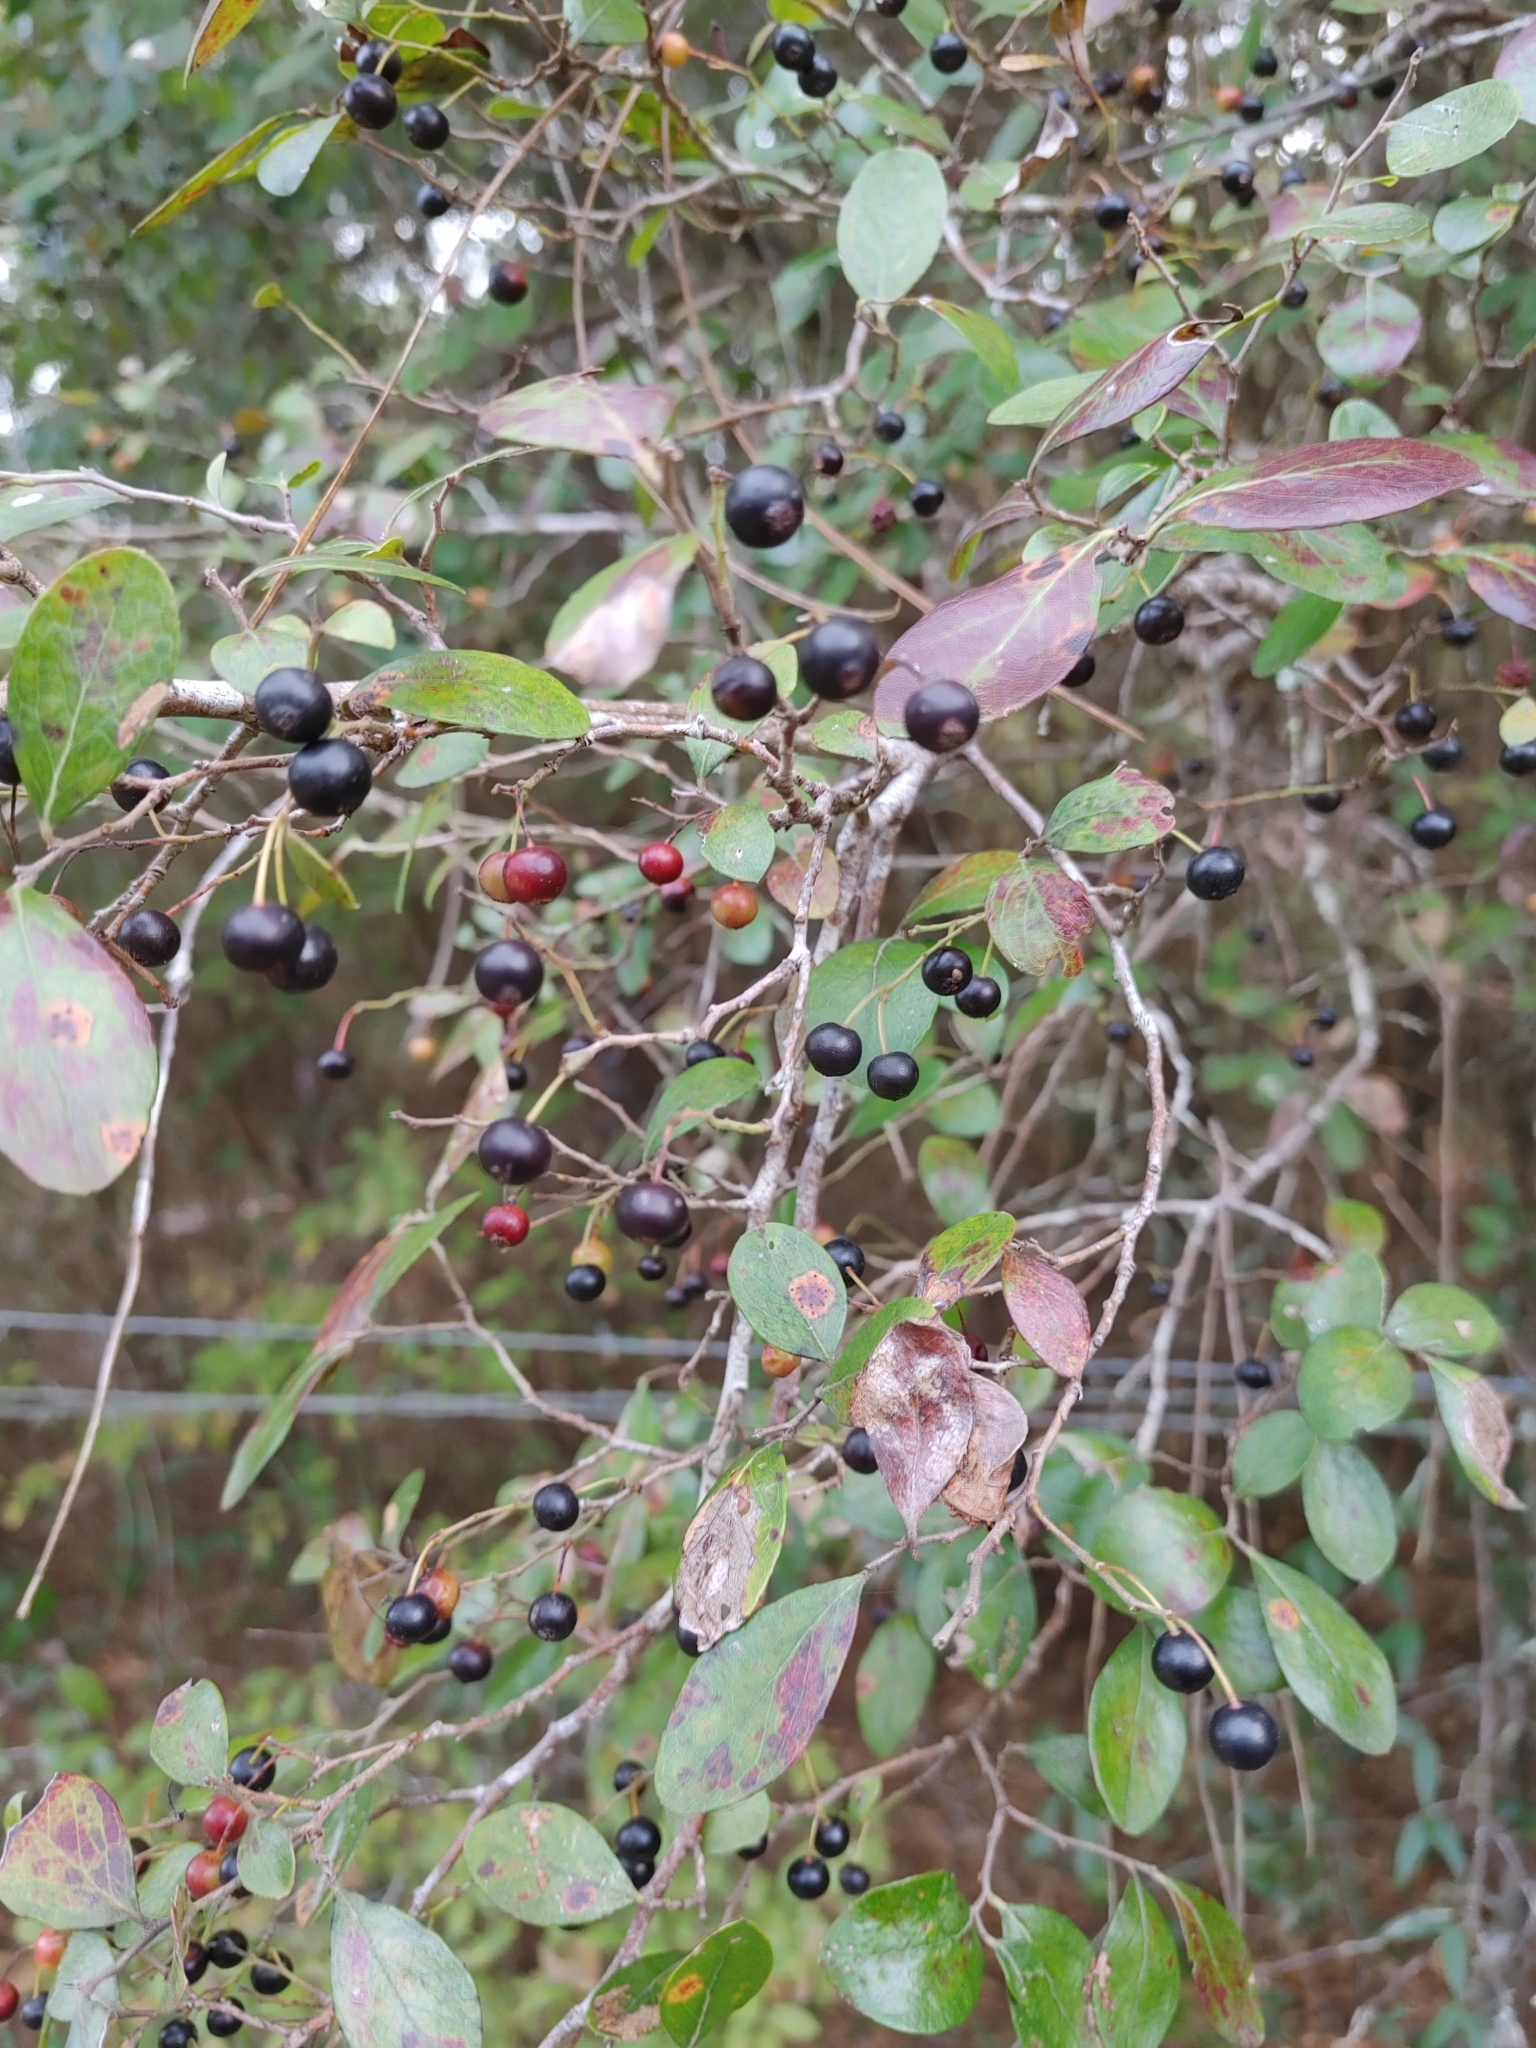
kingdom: Plantae
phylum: Tracheophyta
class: Magnoliopsida
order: Ericales
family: Ericaceae
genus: Vaccinium
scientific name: Vaccinium arboreum
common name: Farkleberry
